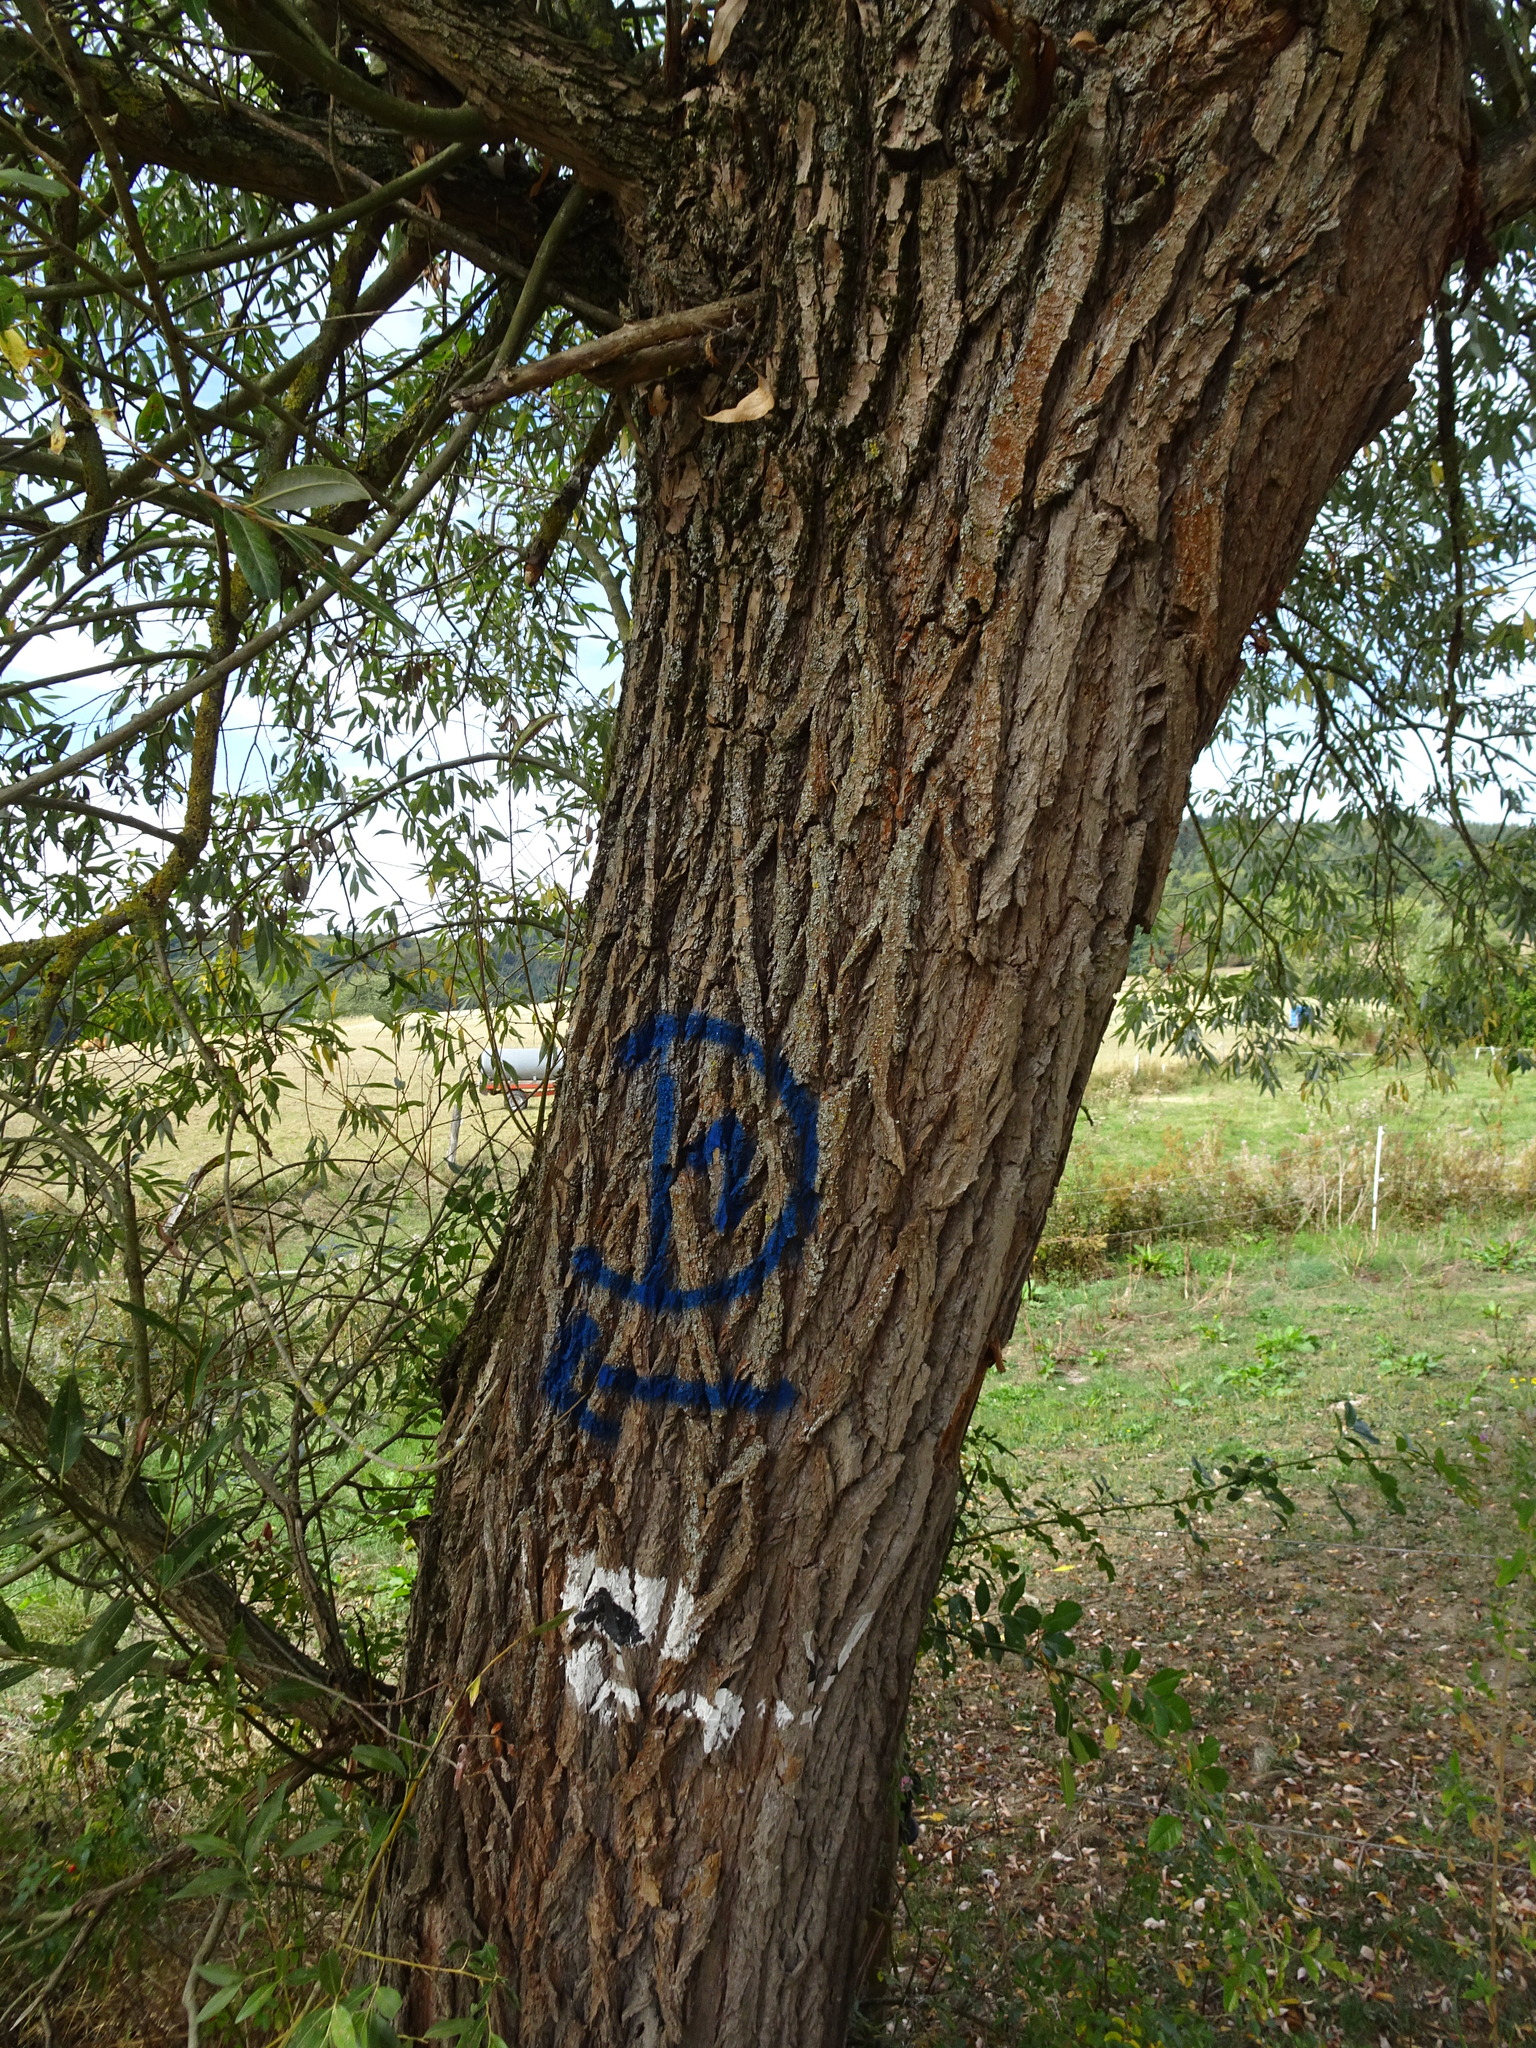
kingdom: Plantae
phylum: Tracheophyta
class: Magnoliopsida
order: Malpighiales
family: Salicaceae
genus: Salix
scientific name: Salix fragilis
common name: Crack willow
